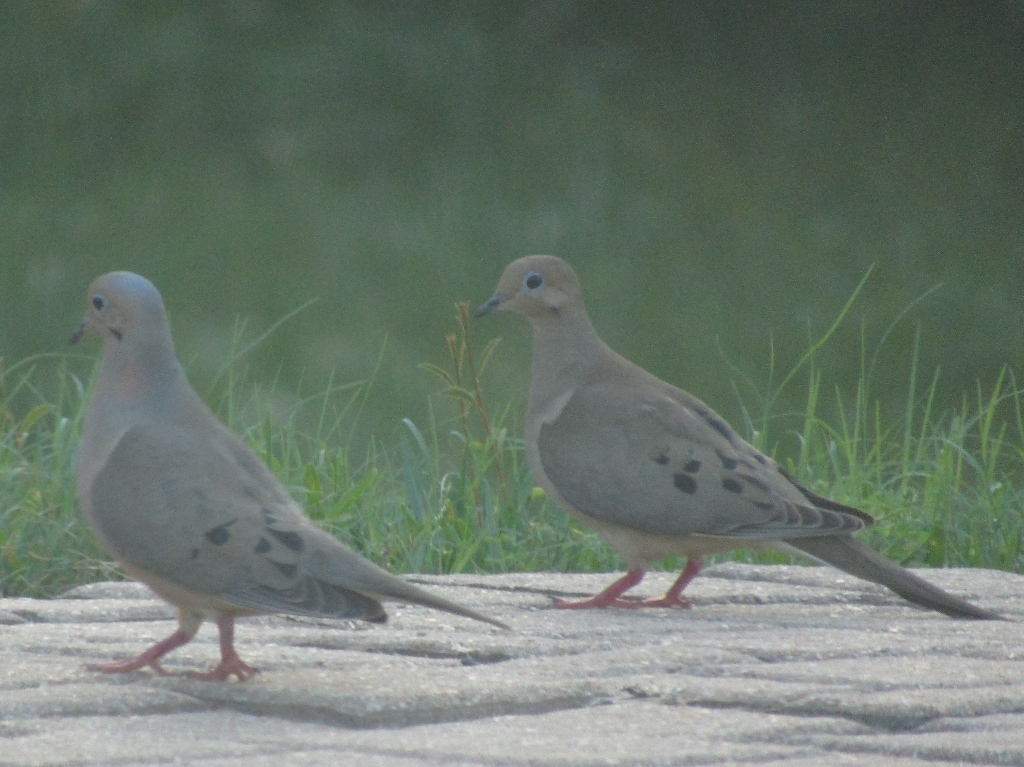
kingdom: Animalia
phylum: Chordata
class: Aves
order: Columbiformes
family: Columbidae
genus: Zenaida
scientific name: Zenaida macroura
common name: Mourning dove
